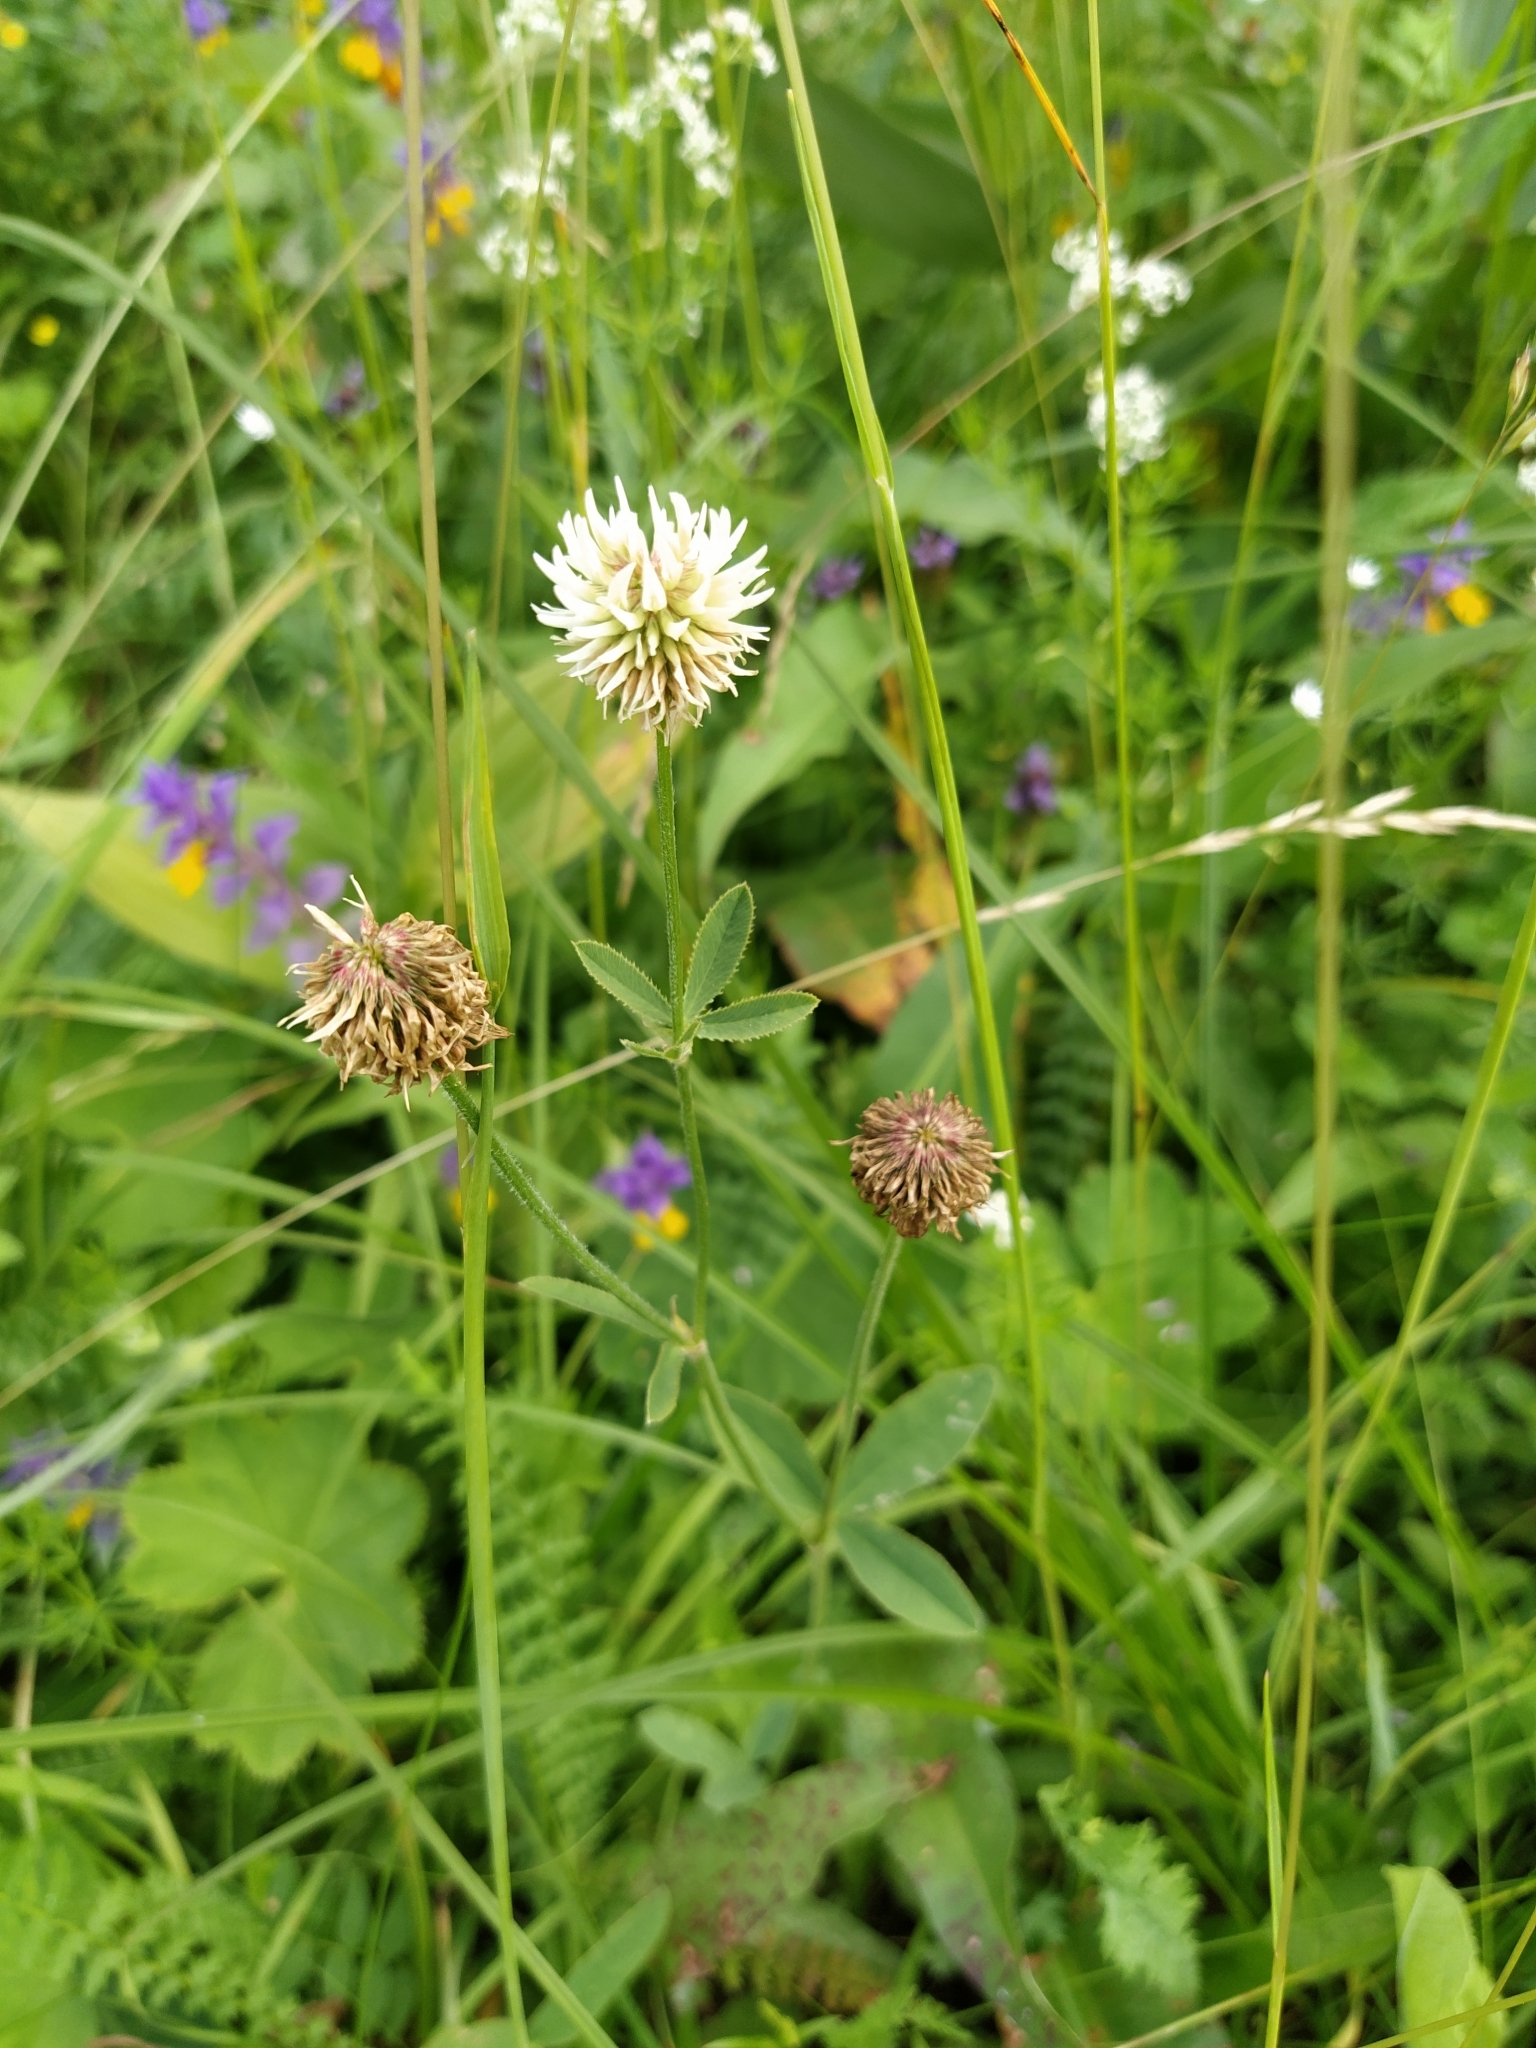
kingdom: Plantae
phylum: Tracheophyta
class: Magnoliopsida
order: Fabales
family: Fabaceae
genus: Trifolium
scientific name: Trifolium montanum
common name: Mountain clover
